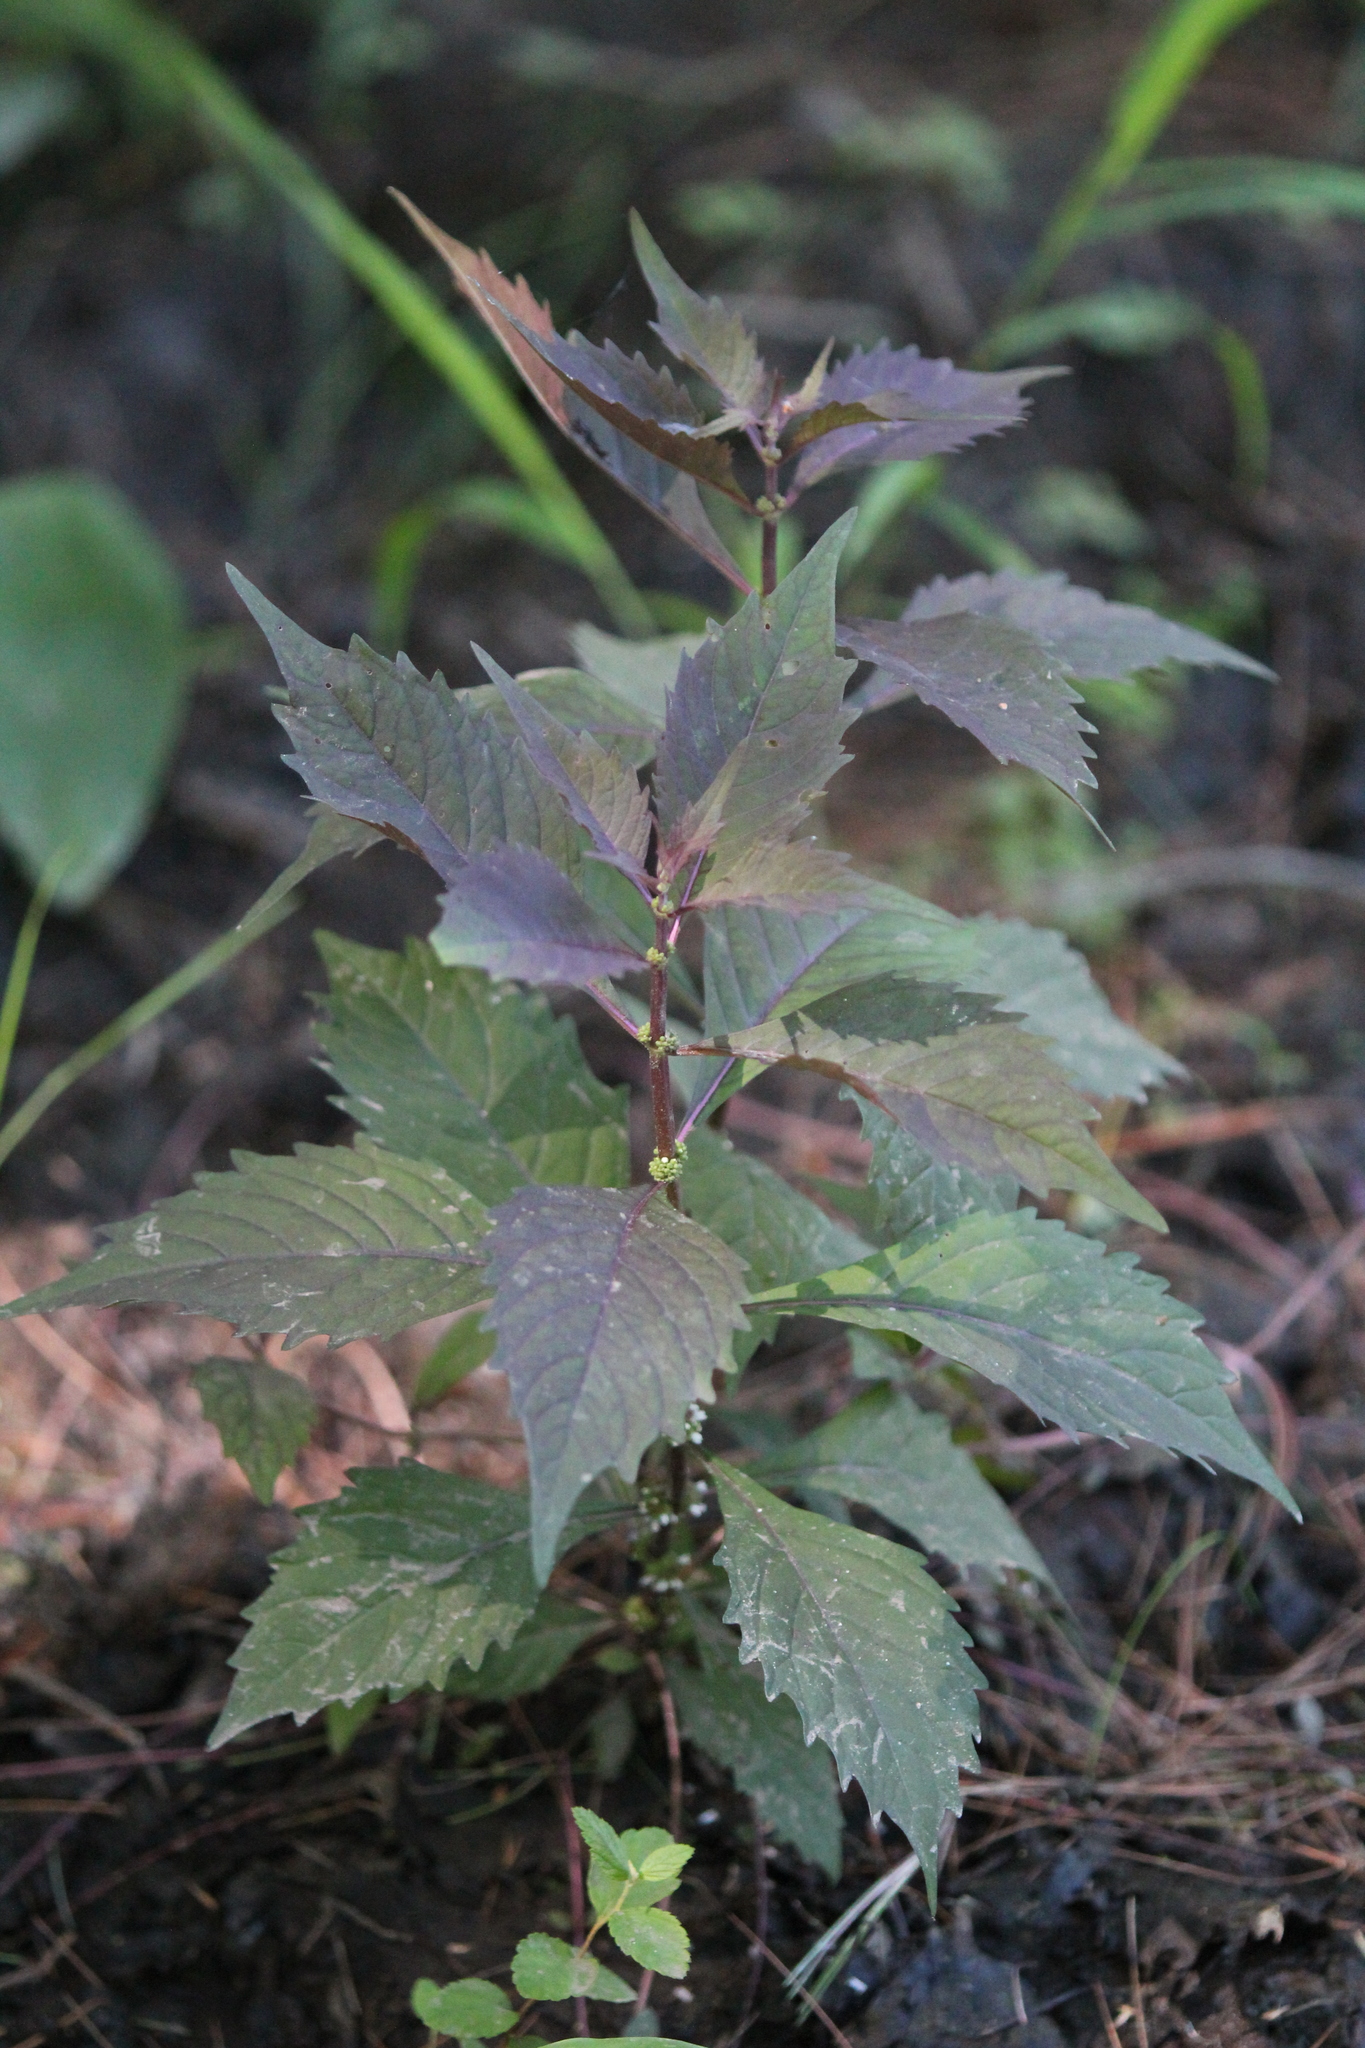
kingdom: Plantae
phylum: Tracheophyta
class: Magnoliopsida
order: Lamiales
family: Lamiaceae
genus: Lycopus
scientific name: Lycopus virginicus
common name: Bugleweed
